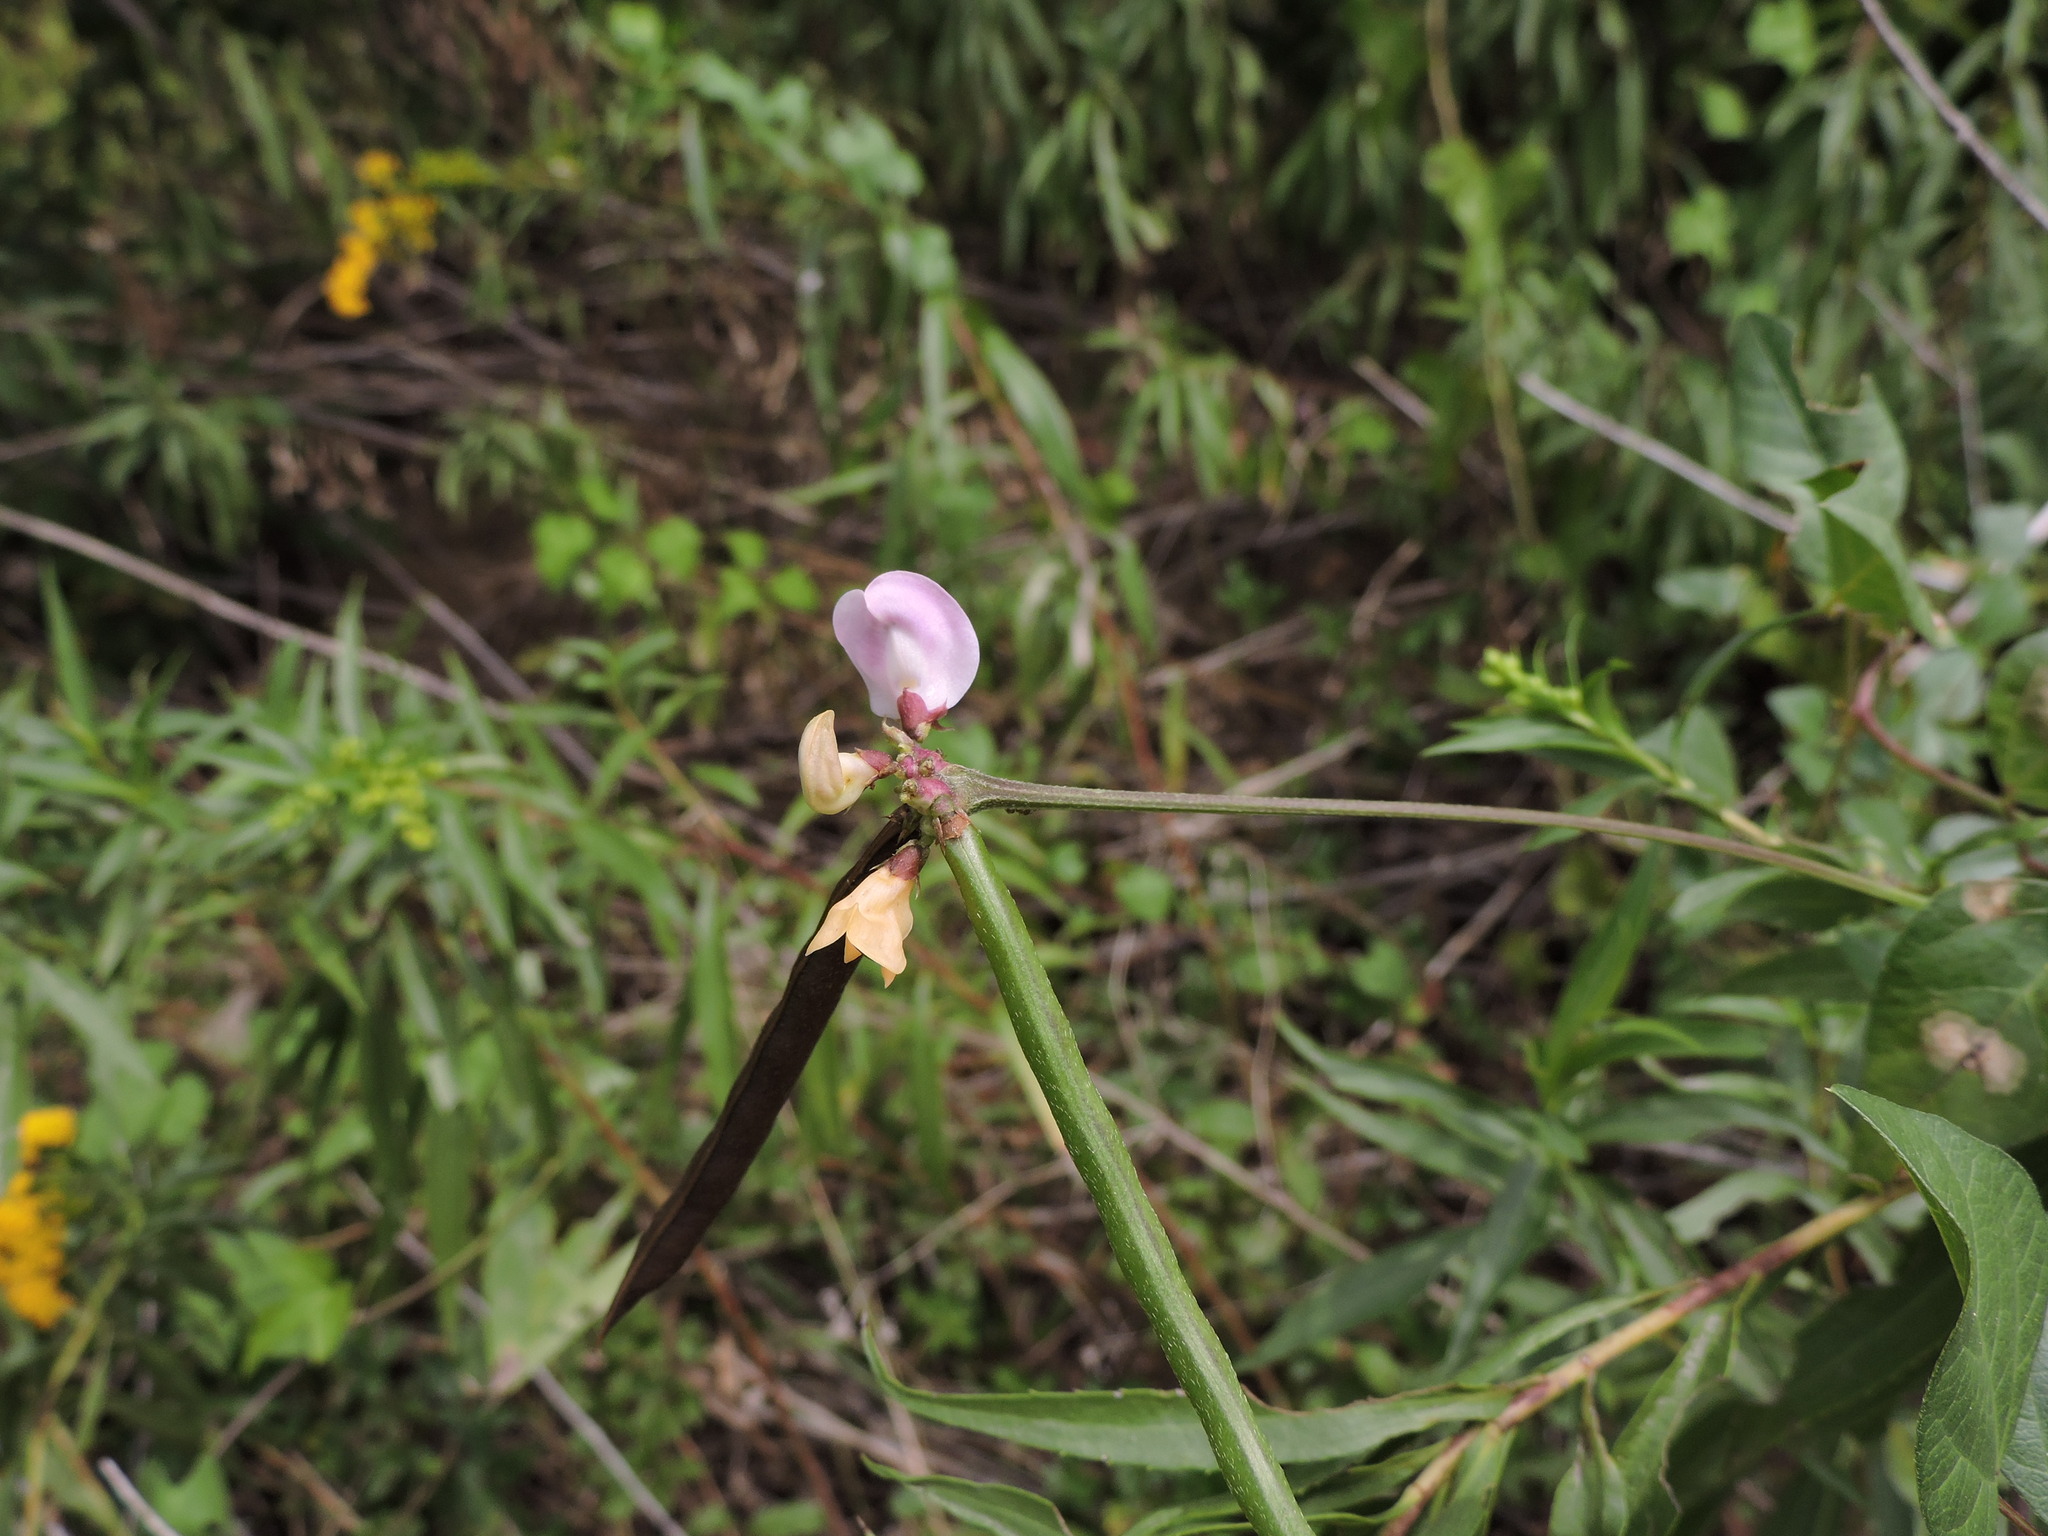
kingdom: Plantae
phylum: Tracheophyta
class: Magnoliopsida
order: Fabales
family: Fabaceae
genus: Strophostyles
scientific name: Strophostyles helvola
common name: Trailing wild bean
